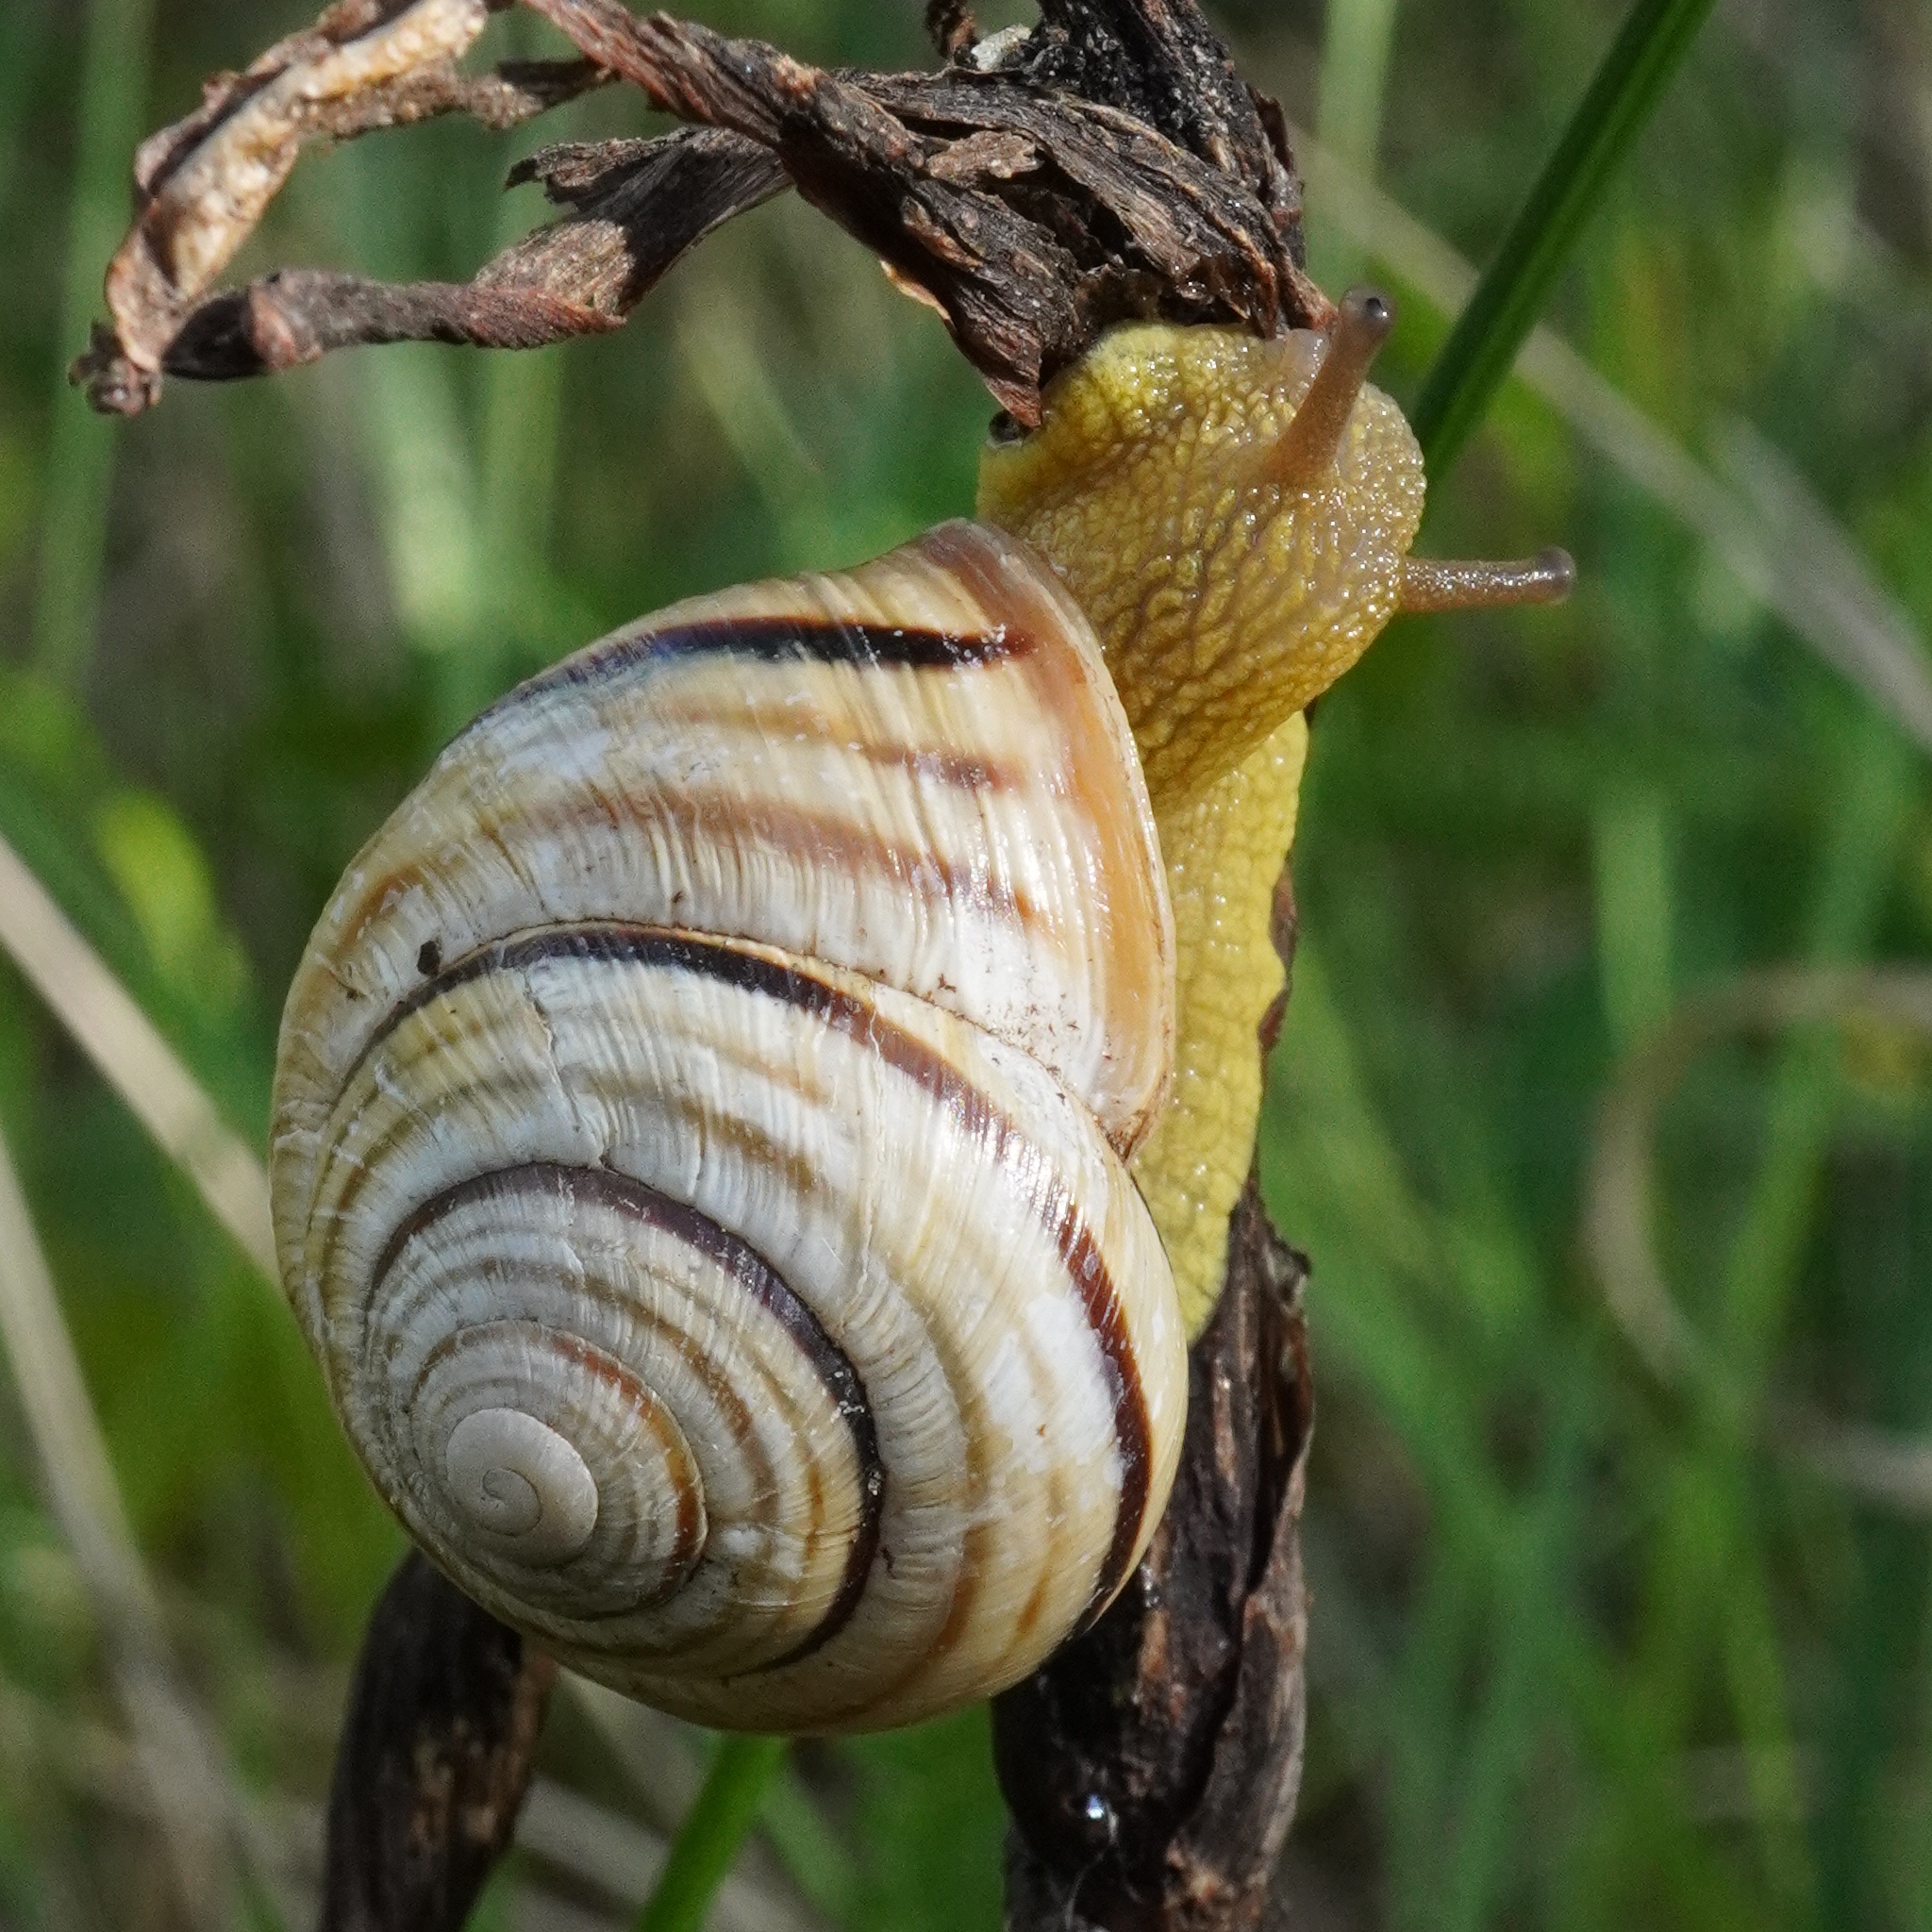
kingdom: Animalia
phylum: Mollusca
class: Gastropoda
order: Stylommatophora
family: Helicidae
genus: Caucasotachea
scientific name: Caucasotachea vindobonensis
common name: European helicid land snail
